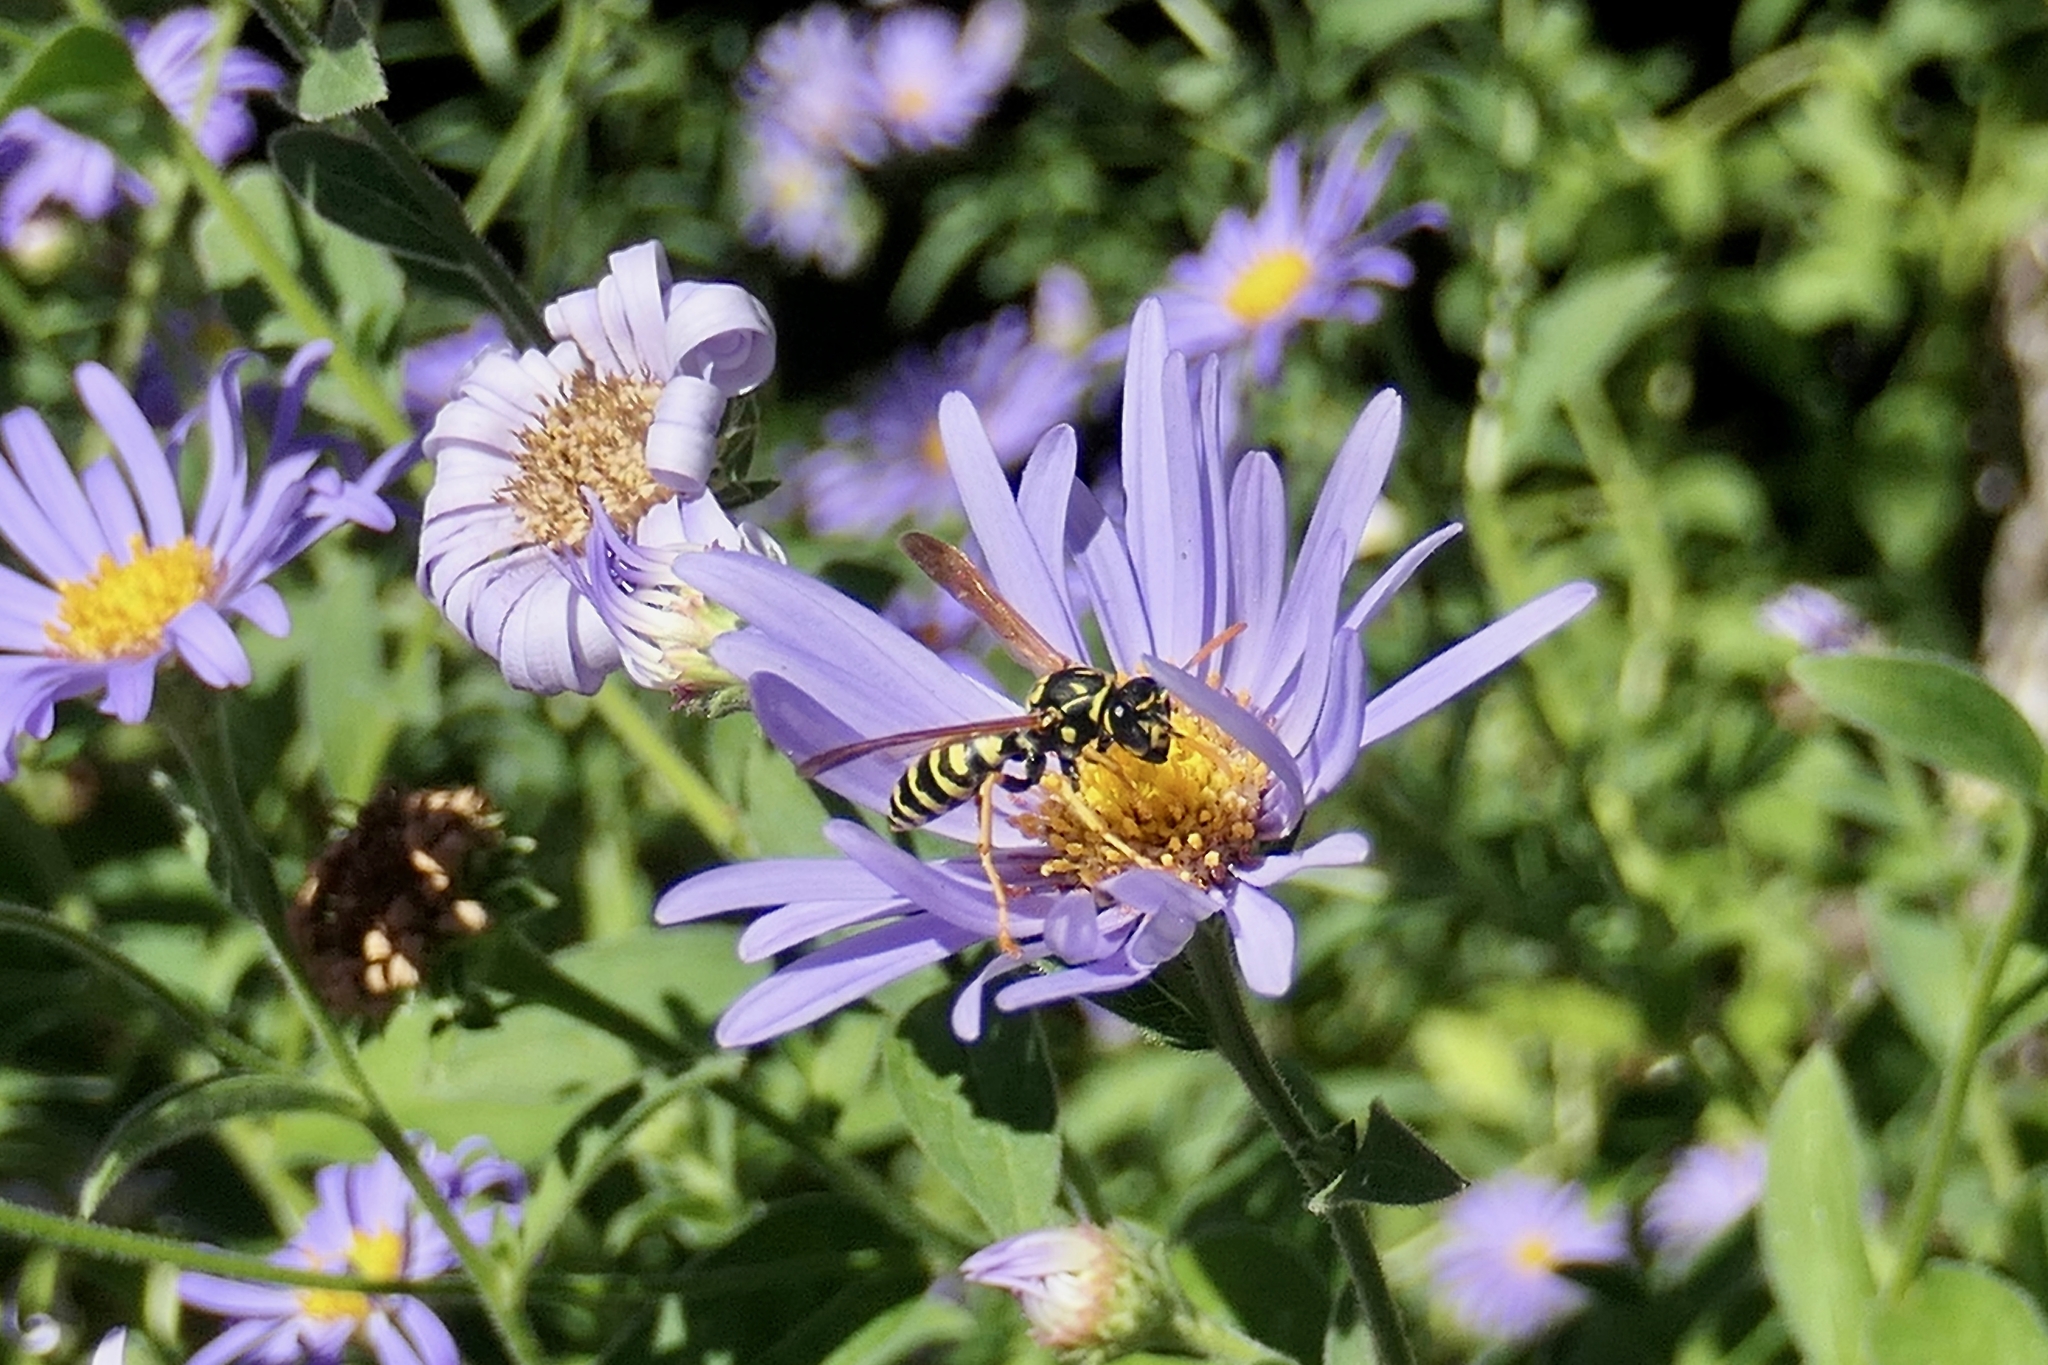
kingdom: Animalia
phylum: Arthropoda
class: Insecta
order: Hymenoptera
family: Eumenidae
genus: Polistes
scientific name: Polistes dominula
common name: Paper wasp
